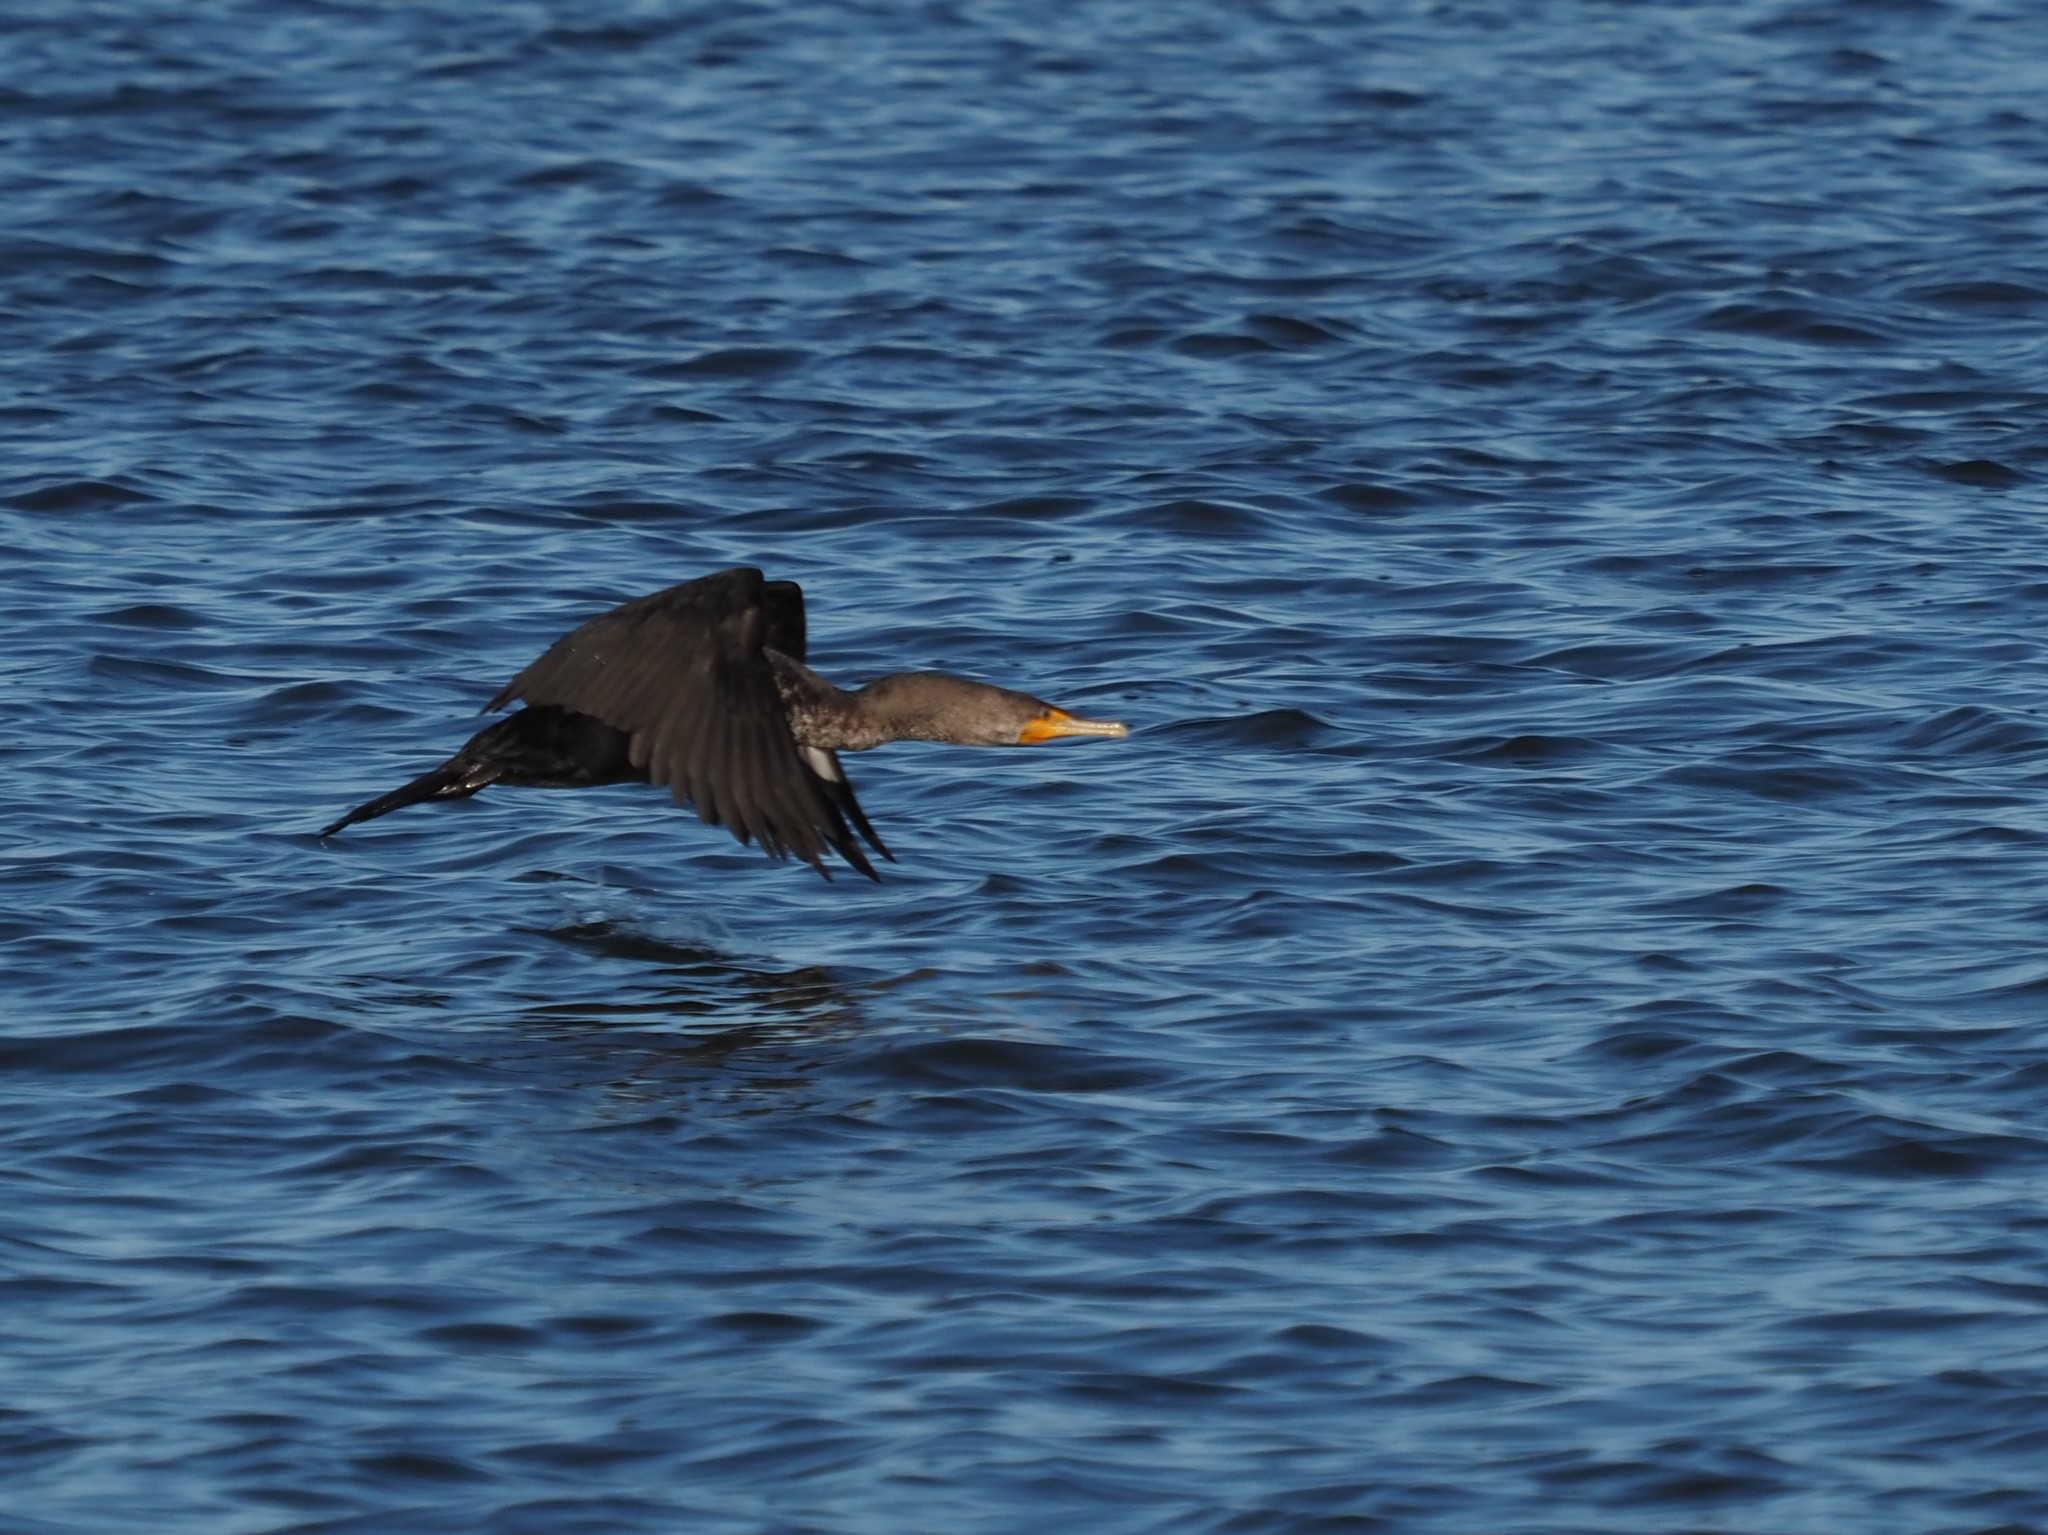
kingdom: Animalia
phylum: Chordata
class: Aves
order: Suliformes
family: Phalacrocoracidae
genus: Phalacrocorax
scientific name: Phalacrocorax auritus
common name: Double-crested cormorant
